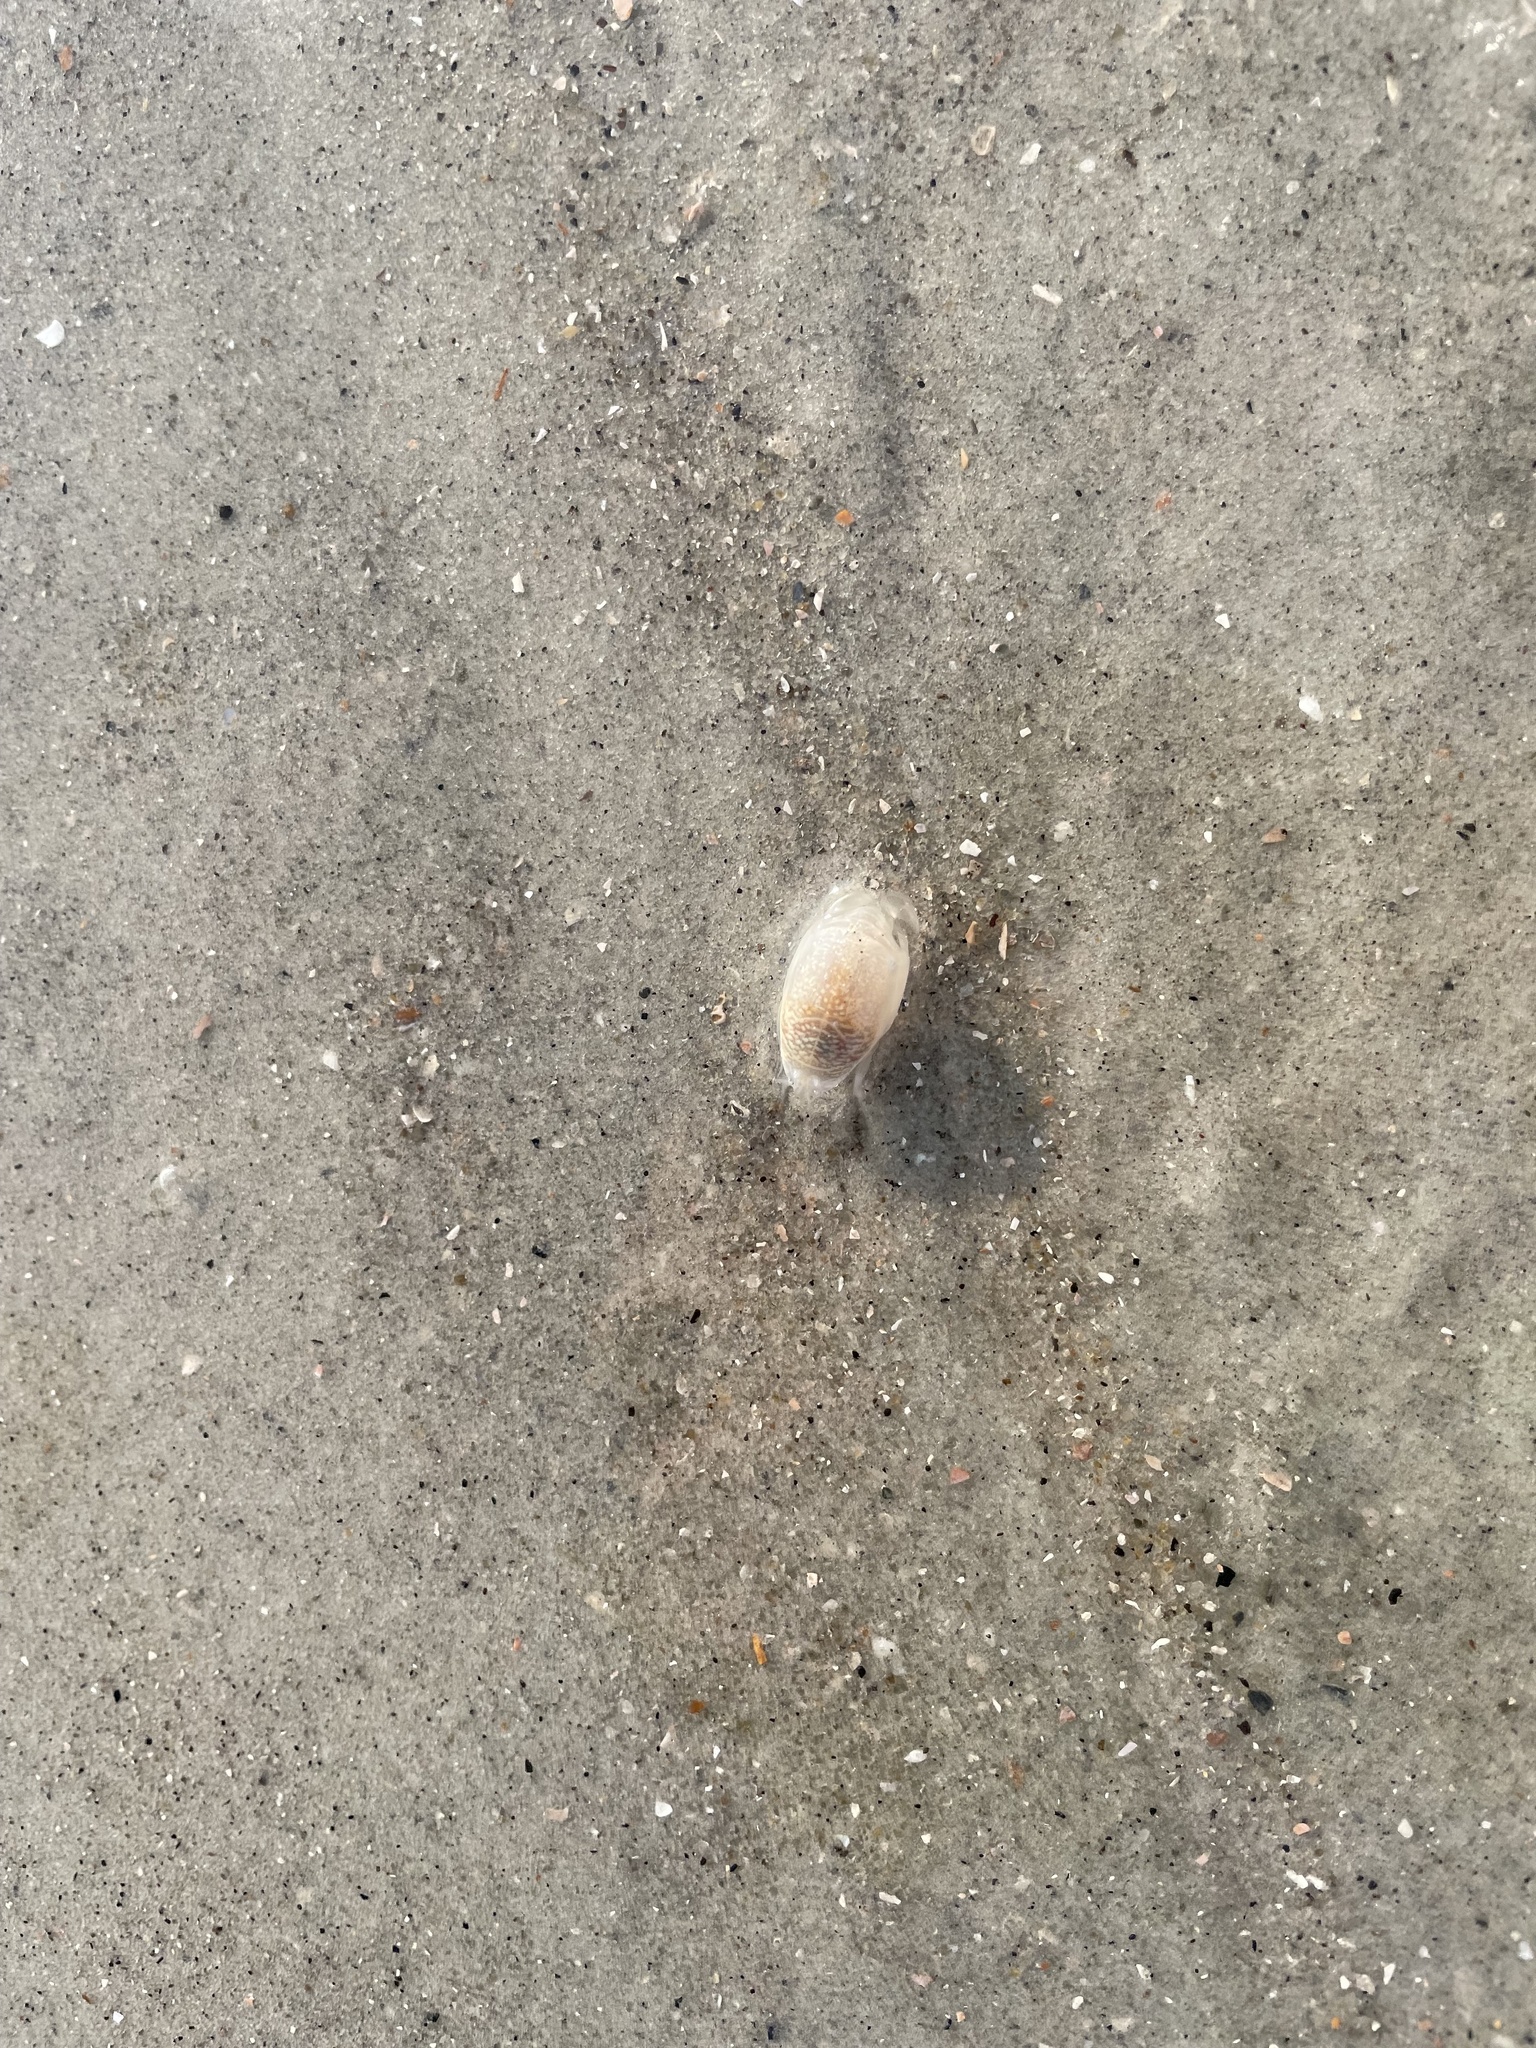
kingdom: Animalia
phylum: Arthropoda
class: Malacostraca
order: Decapoda
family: Hippidae
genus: Emerita
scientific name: Emerita talpoida
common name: Atlantic sand crab
